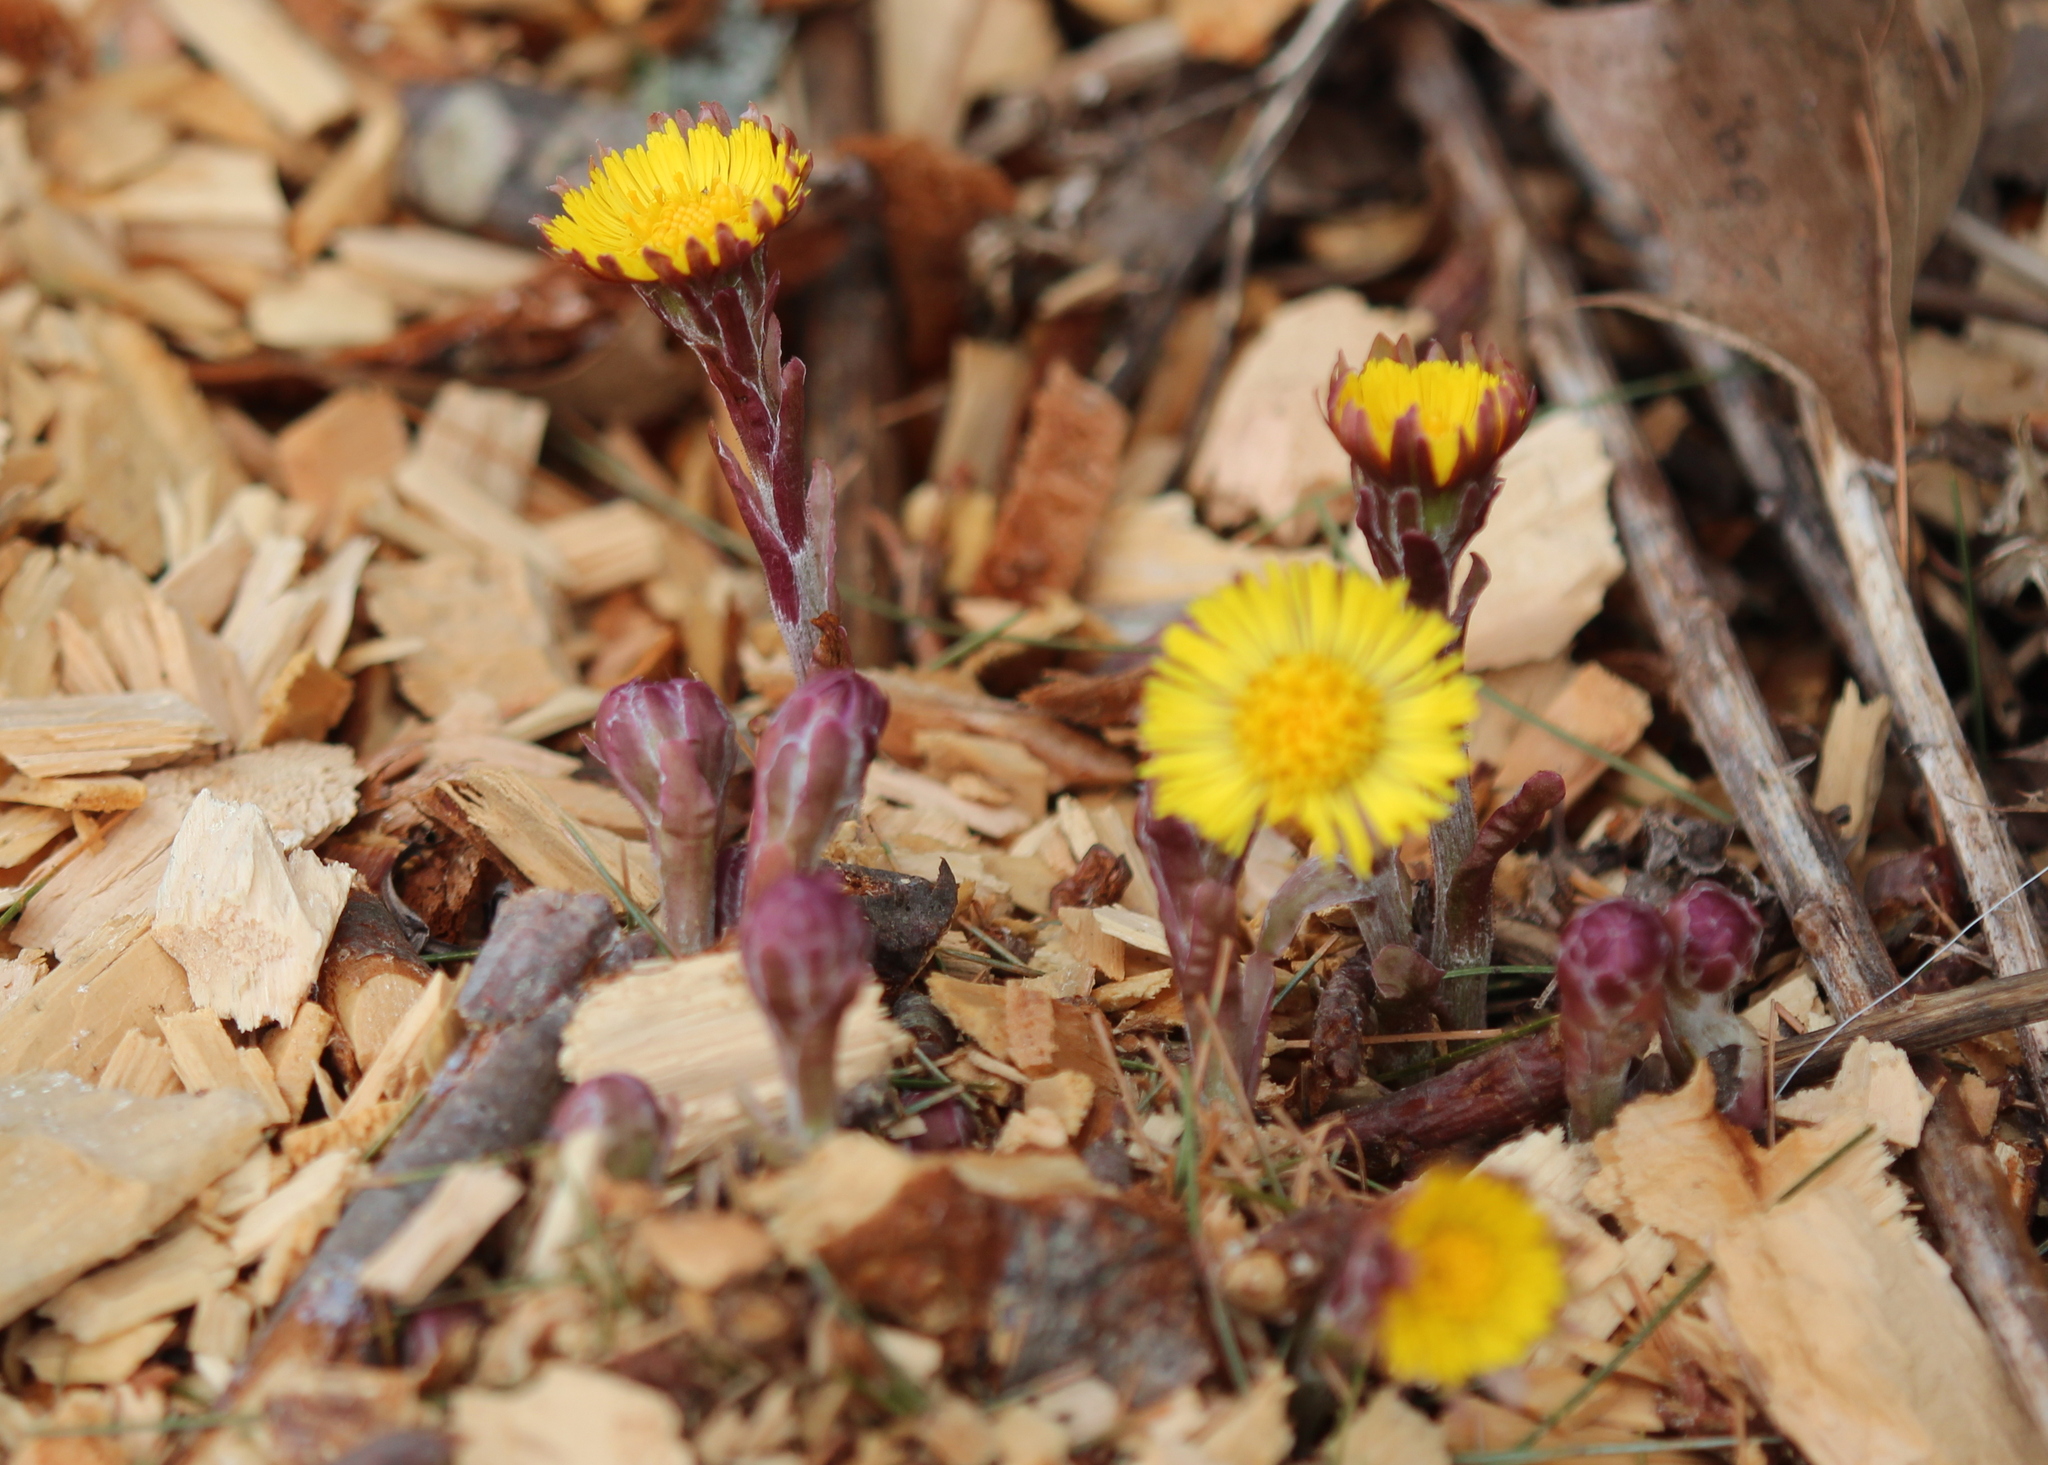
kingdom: Plantae
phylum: Tracheophyta
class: Magnoliopsida
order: Asterales
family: Asteraceae
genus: Tussilago
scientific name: Tussilago farfara
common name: Coltsfoot
